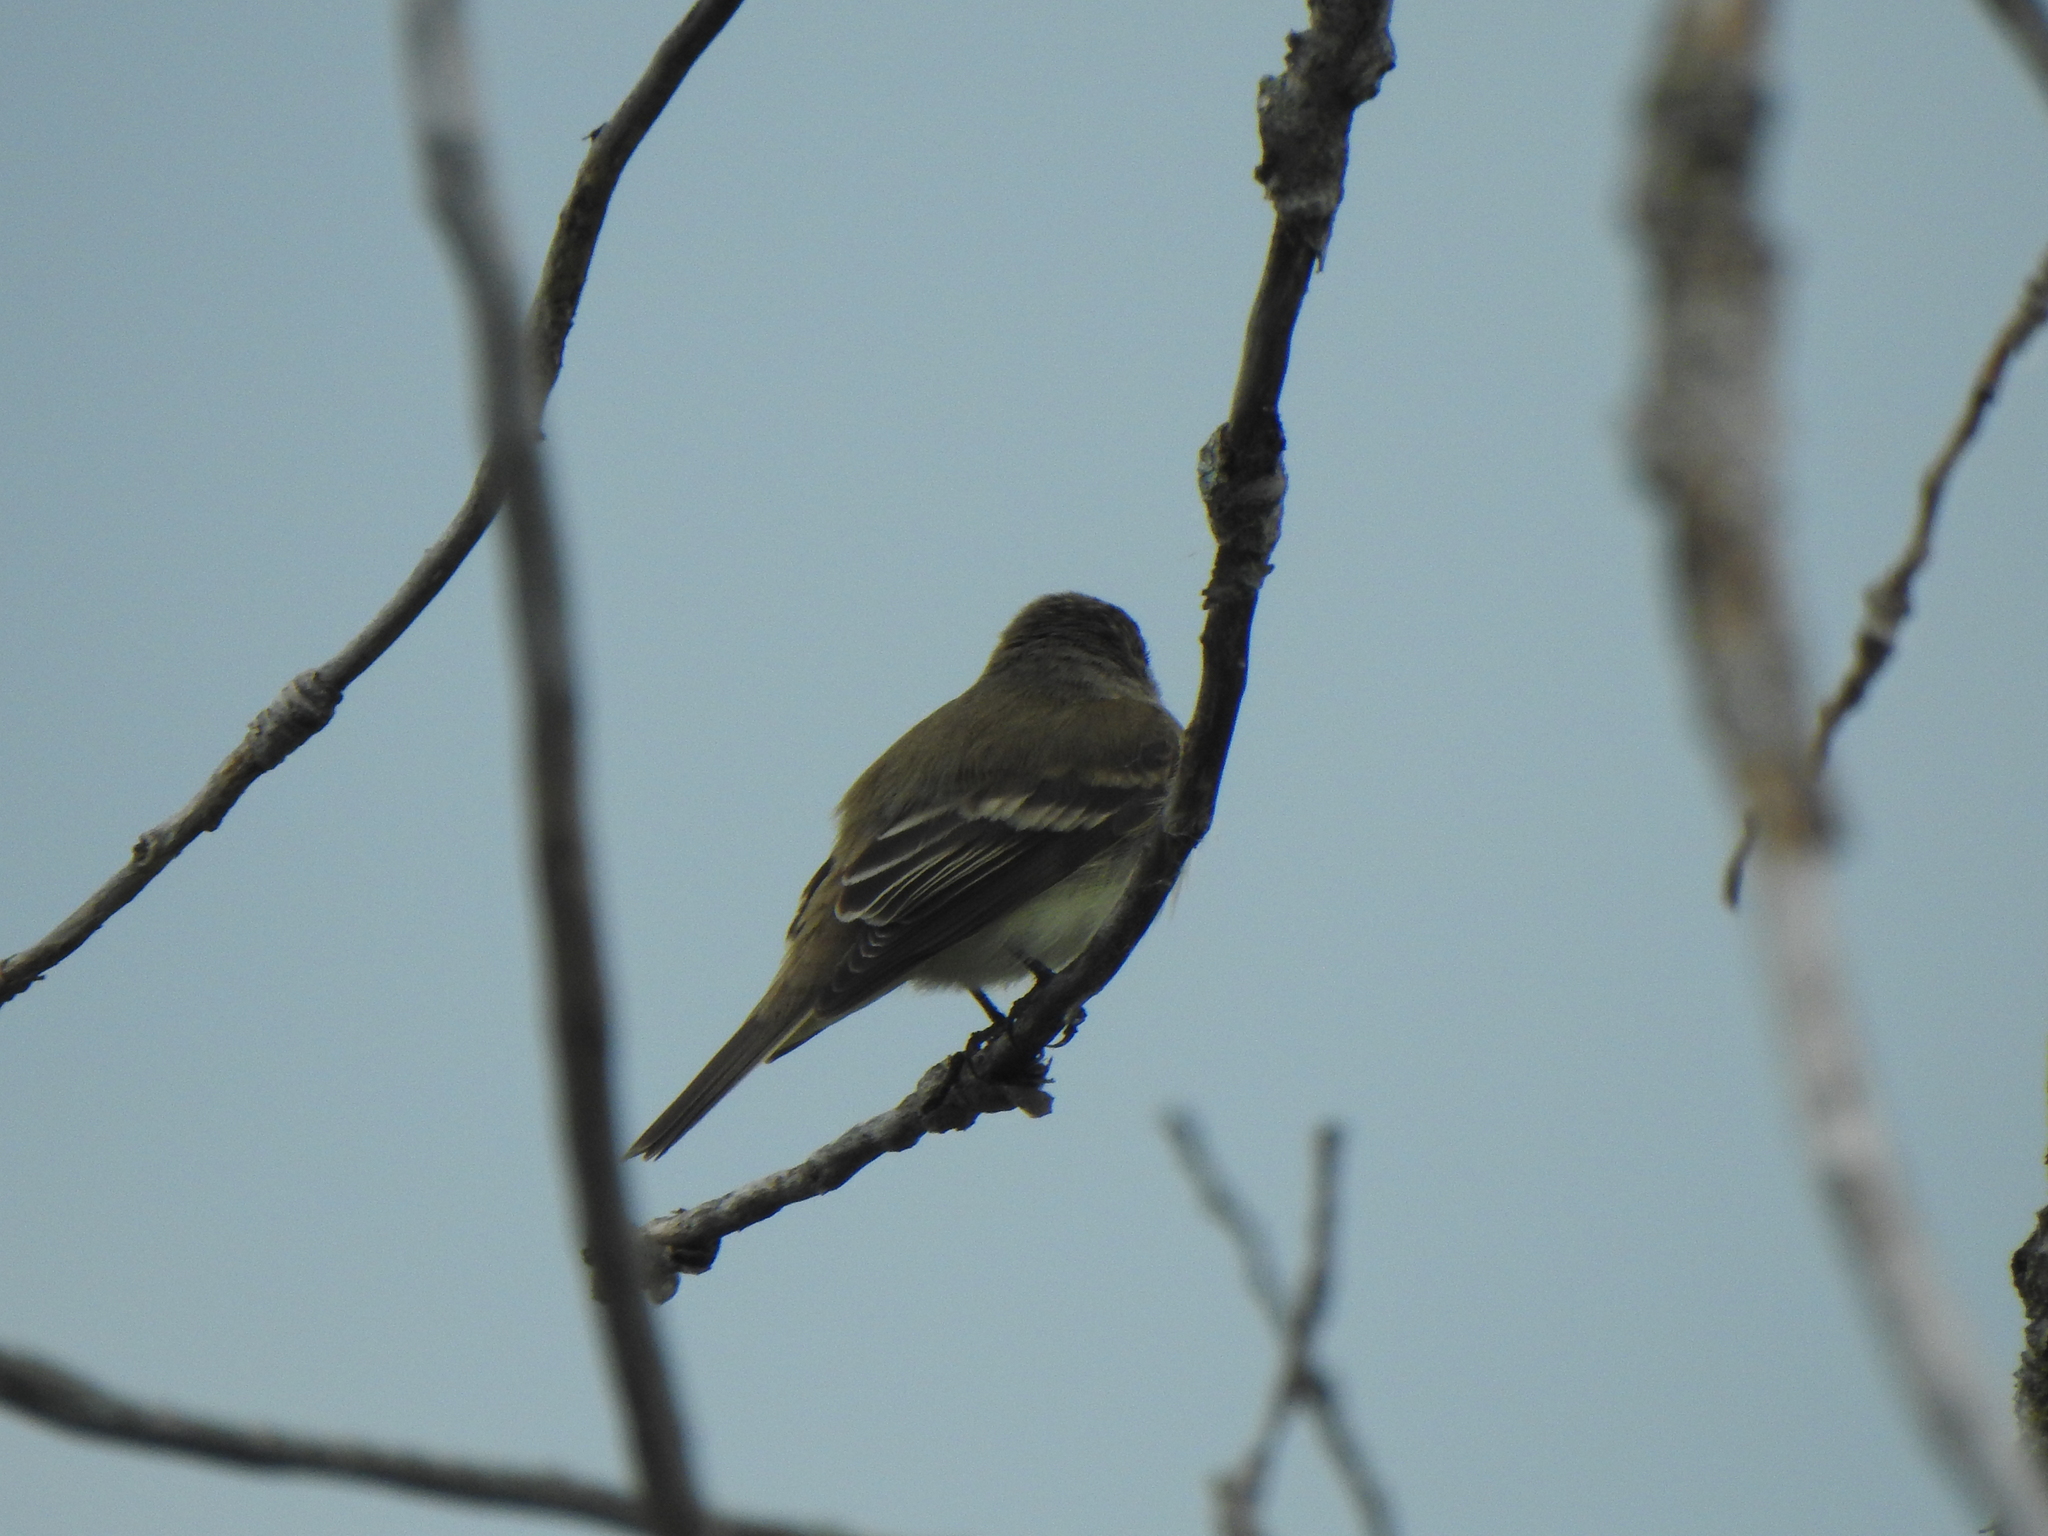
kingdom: Animalia
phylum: Chordata
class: Aves
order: Passeriformes
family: Tyrannidae
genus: Empidonax
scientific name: Empidonax
